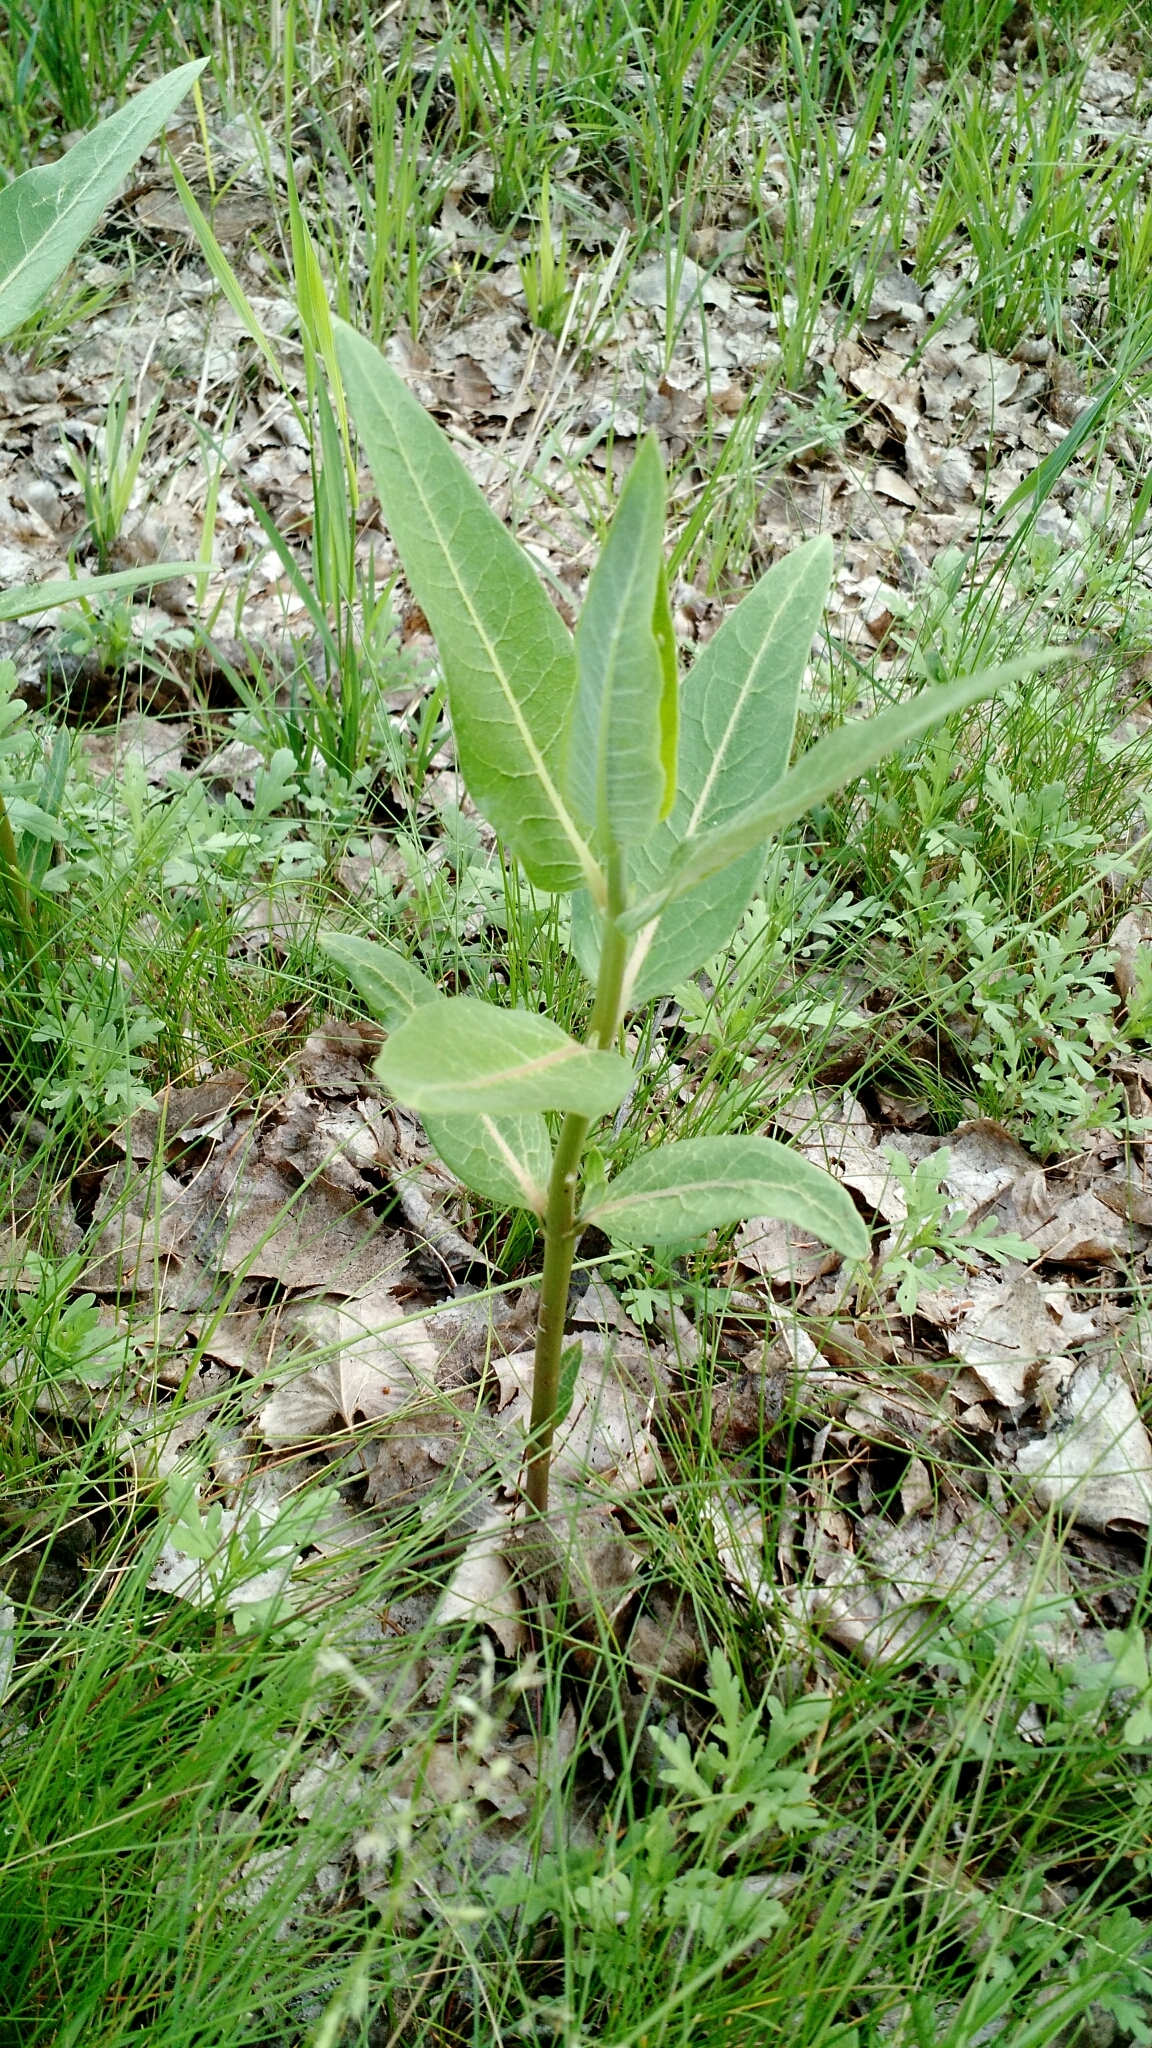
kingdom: Plantae
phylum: Tracheophyta
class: Magnoliopsida
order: Gentianales
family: Apocynaceae
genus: Asclepias
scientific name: Asclepias speciosa
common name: Showy milkweed
